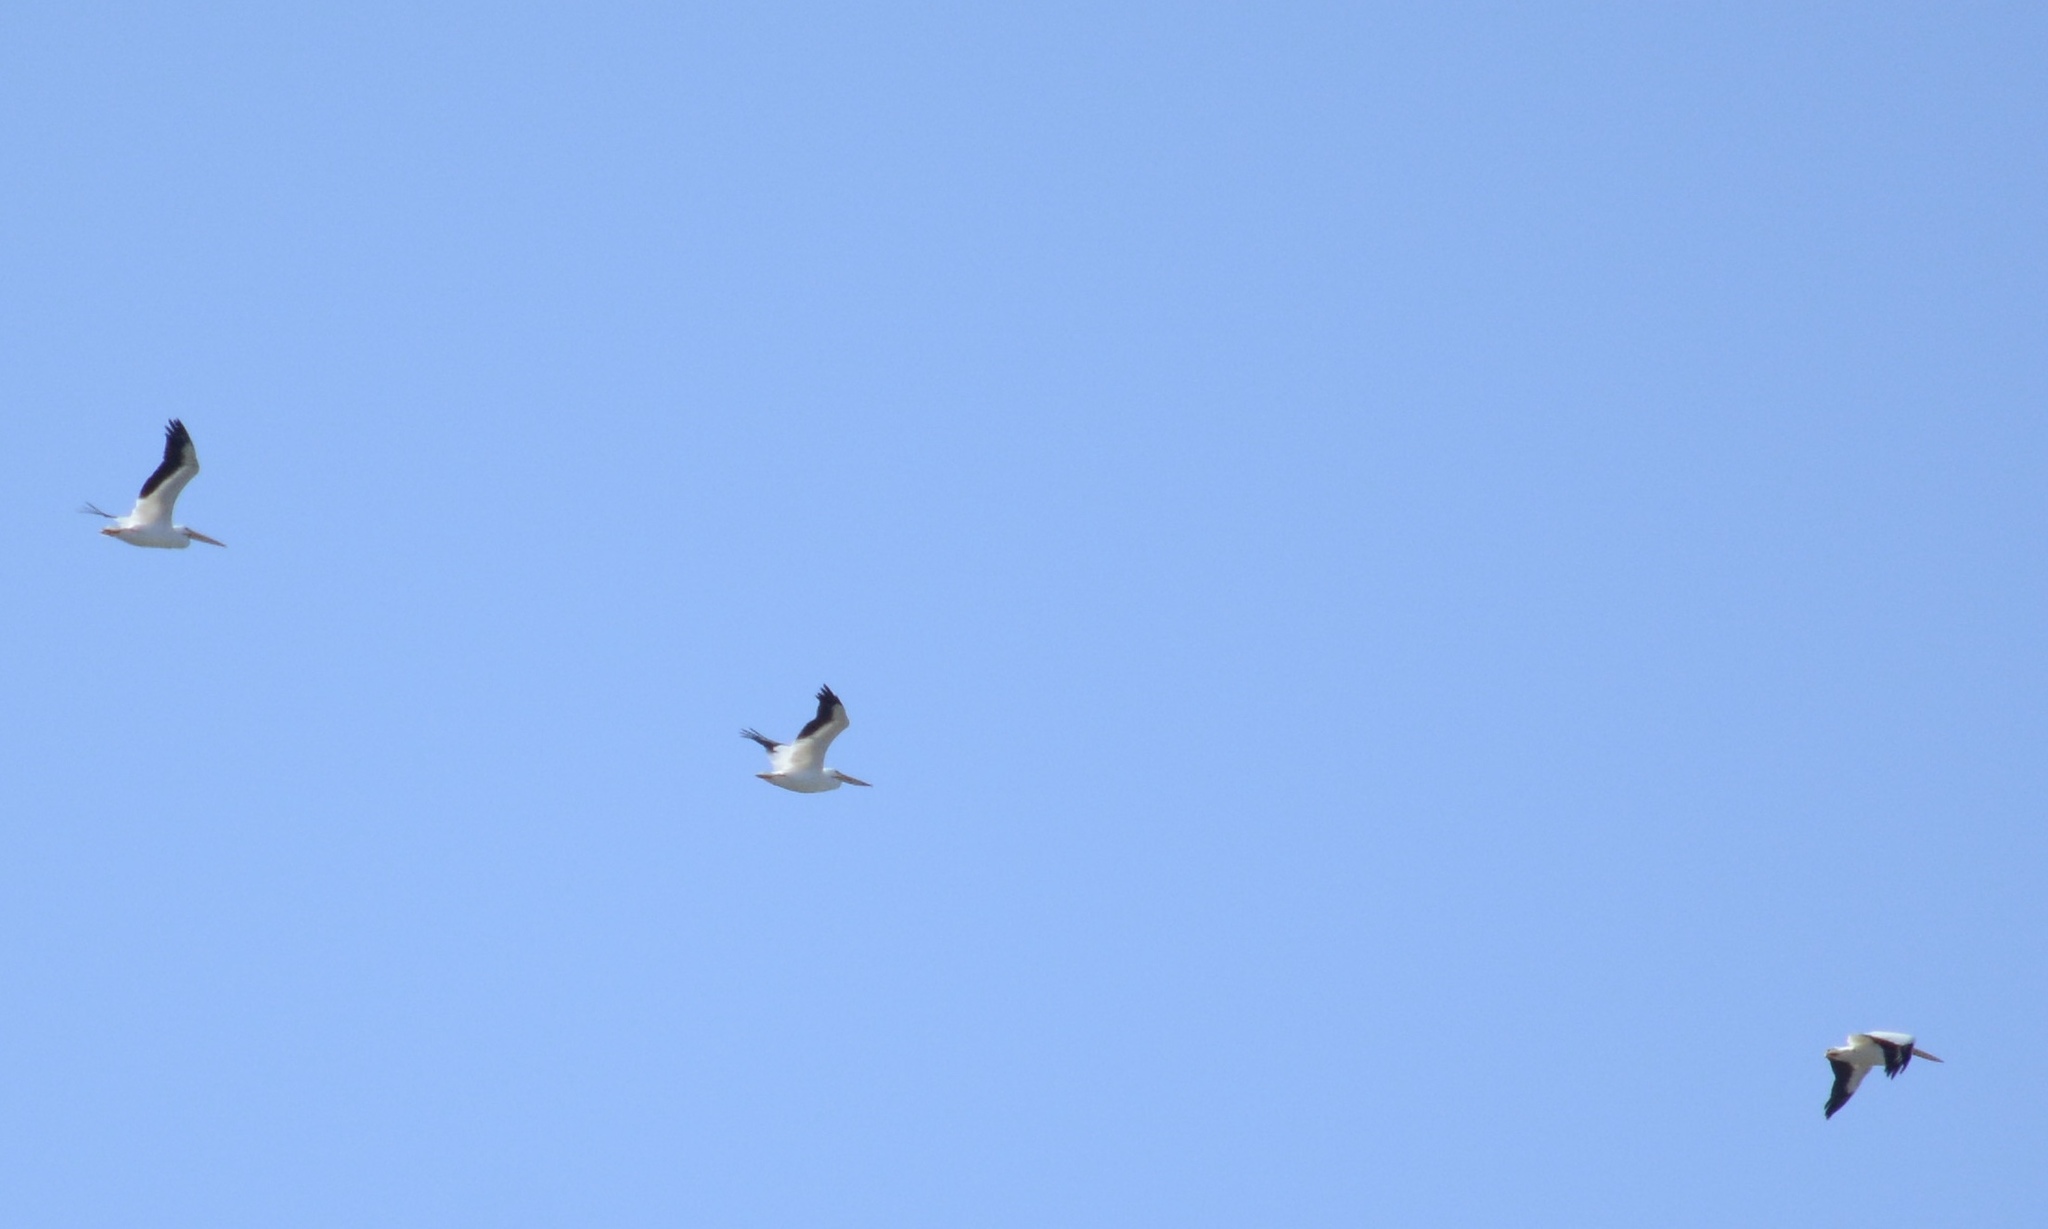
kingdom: Animalia
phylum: Chordata
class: Aves
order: Pelecaniformes
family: Pelecanidae
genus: Pelecanus
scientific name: Pelecanus erythrorhynchos
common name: American white pelican
